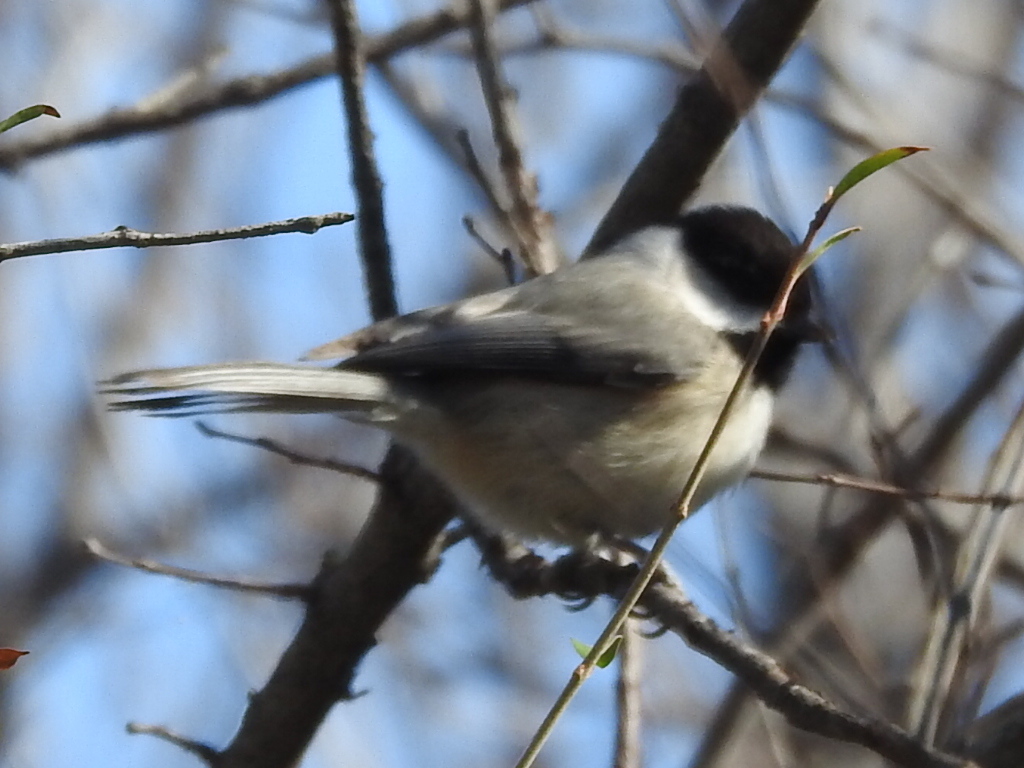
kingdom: Animalia
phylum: Chordata
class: Aves
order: Passeriformes
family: Paridae
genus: Poecile
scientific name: Poecile carolinensis
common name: Carolina chickadee
